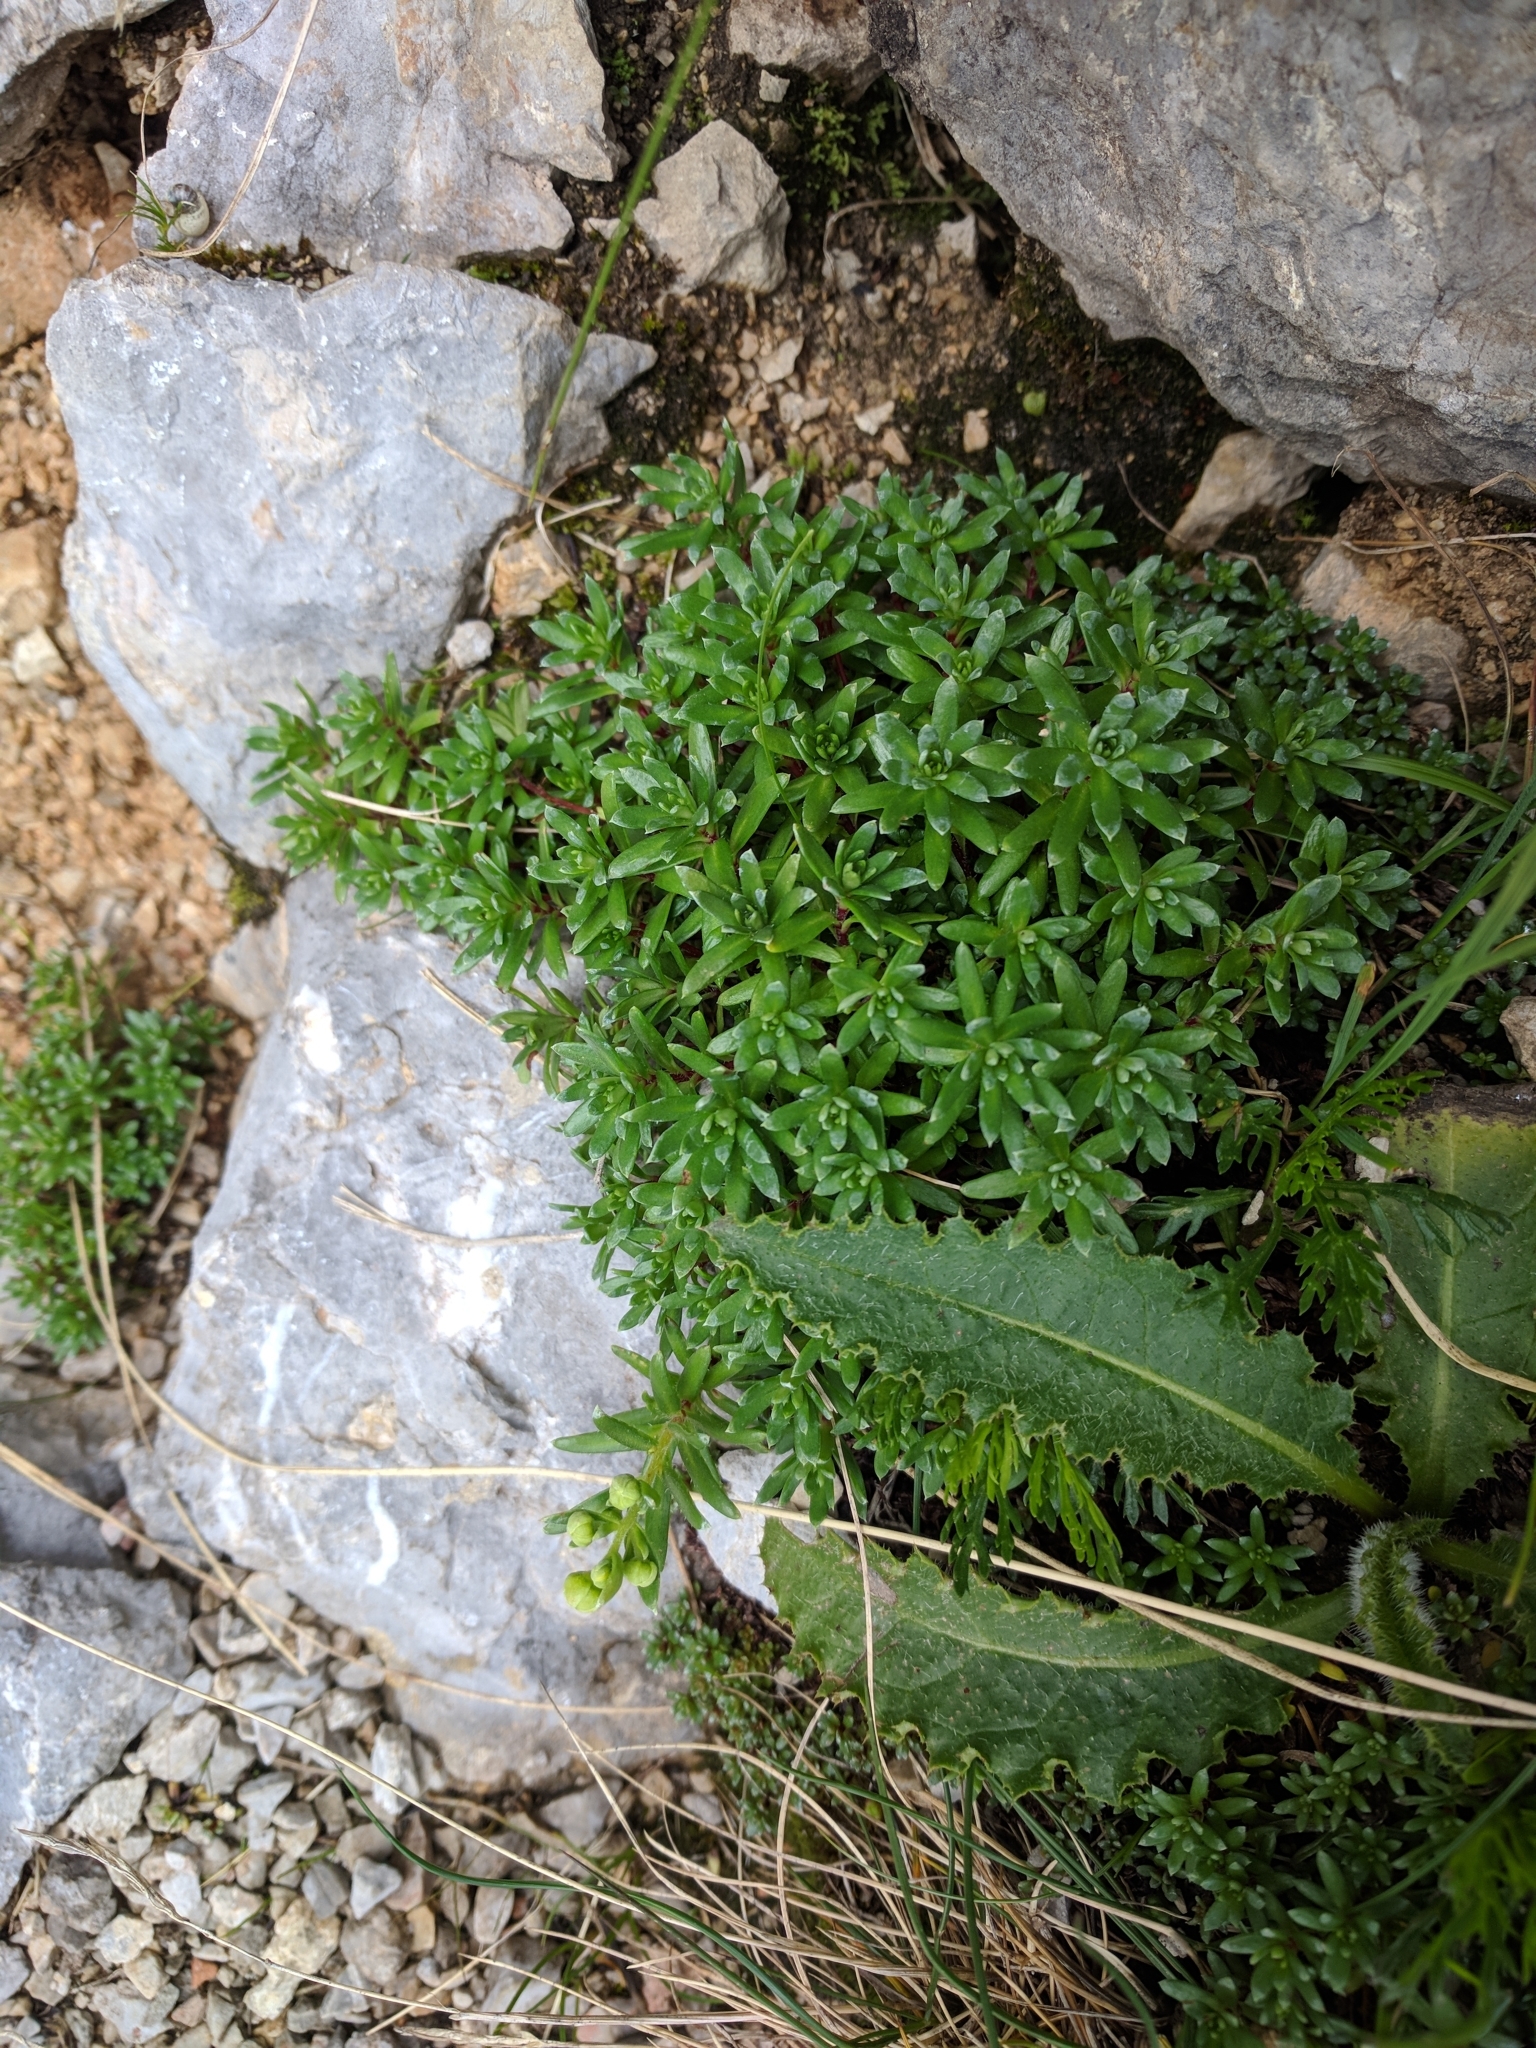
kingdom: Plantae
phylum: Tracheophyta
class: Magnoliopsida
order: Saxifragales
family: Saxifragaceae
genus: Saxifraga
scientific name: Saxifraga aizoides
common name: Yellow mountain saxifrage
